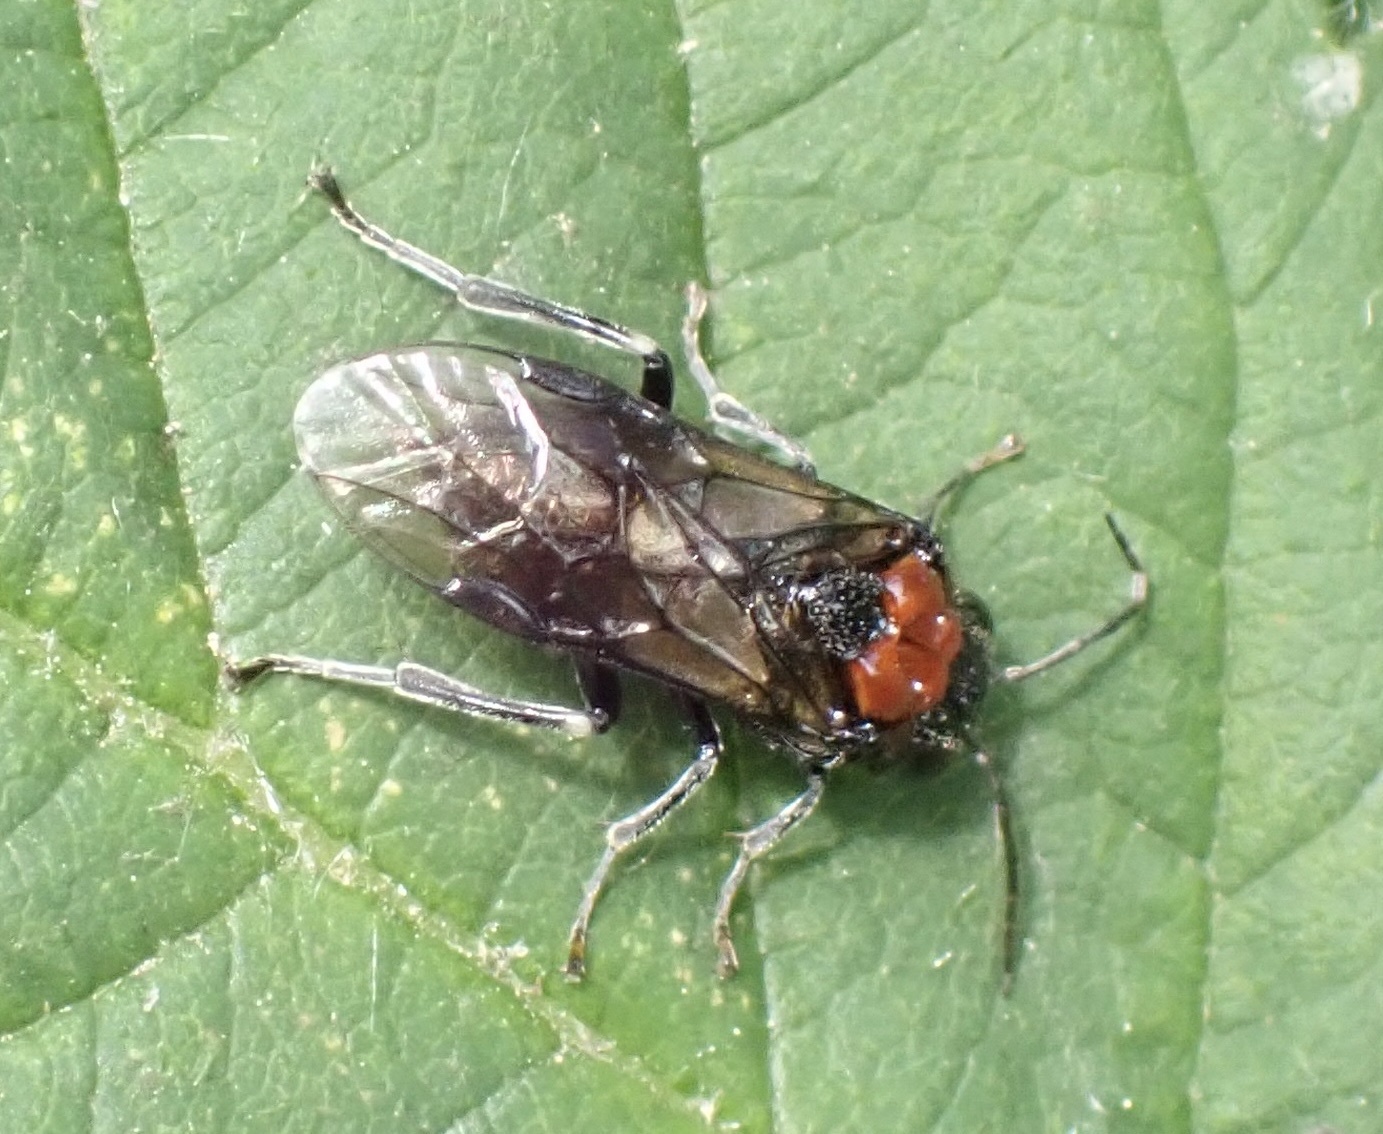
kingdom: Animalia
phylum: Arthropoda
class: Insecta
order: Hymenoptera
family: Tenthredinidae
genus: Eriocampa
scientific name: Eriocampa ovata
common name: Alder wooly sawfly
